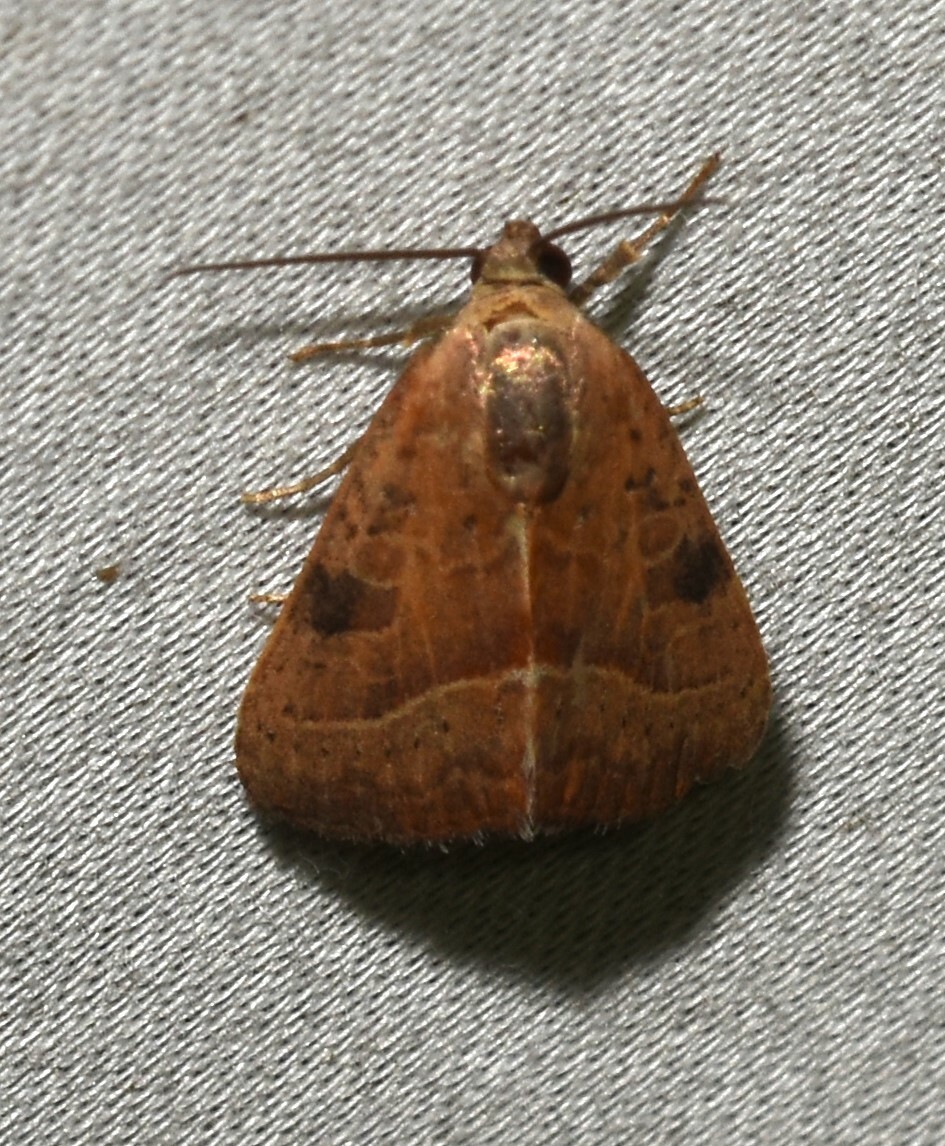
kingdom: Animalia
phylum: Arthropoda
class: Insecta
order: Lepidoptera
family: Noctuidae
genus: Galgula
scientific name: Galgula partita
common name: Wedgeling
